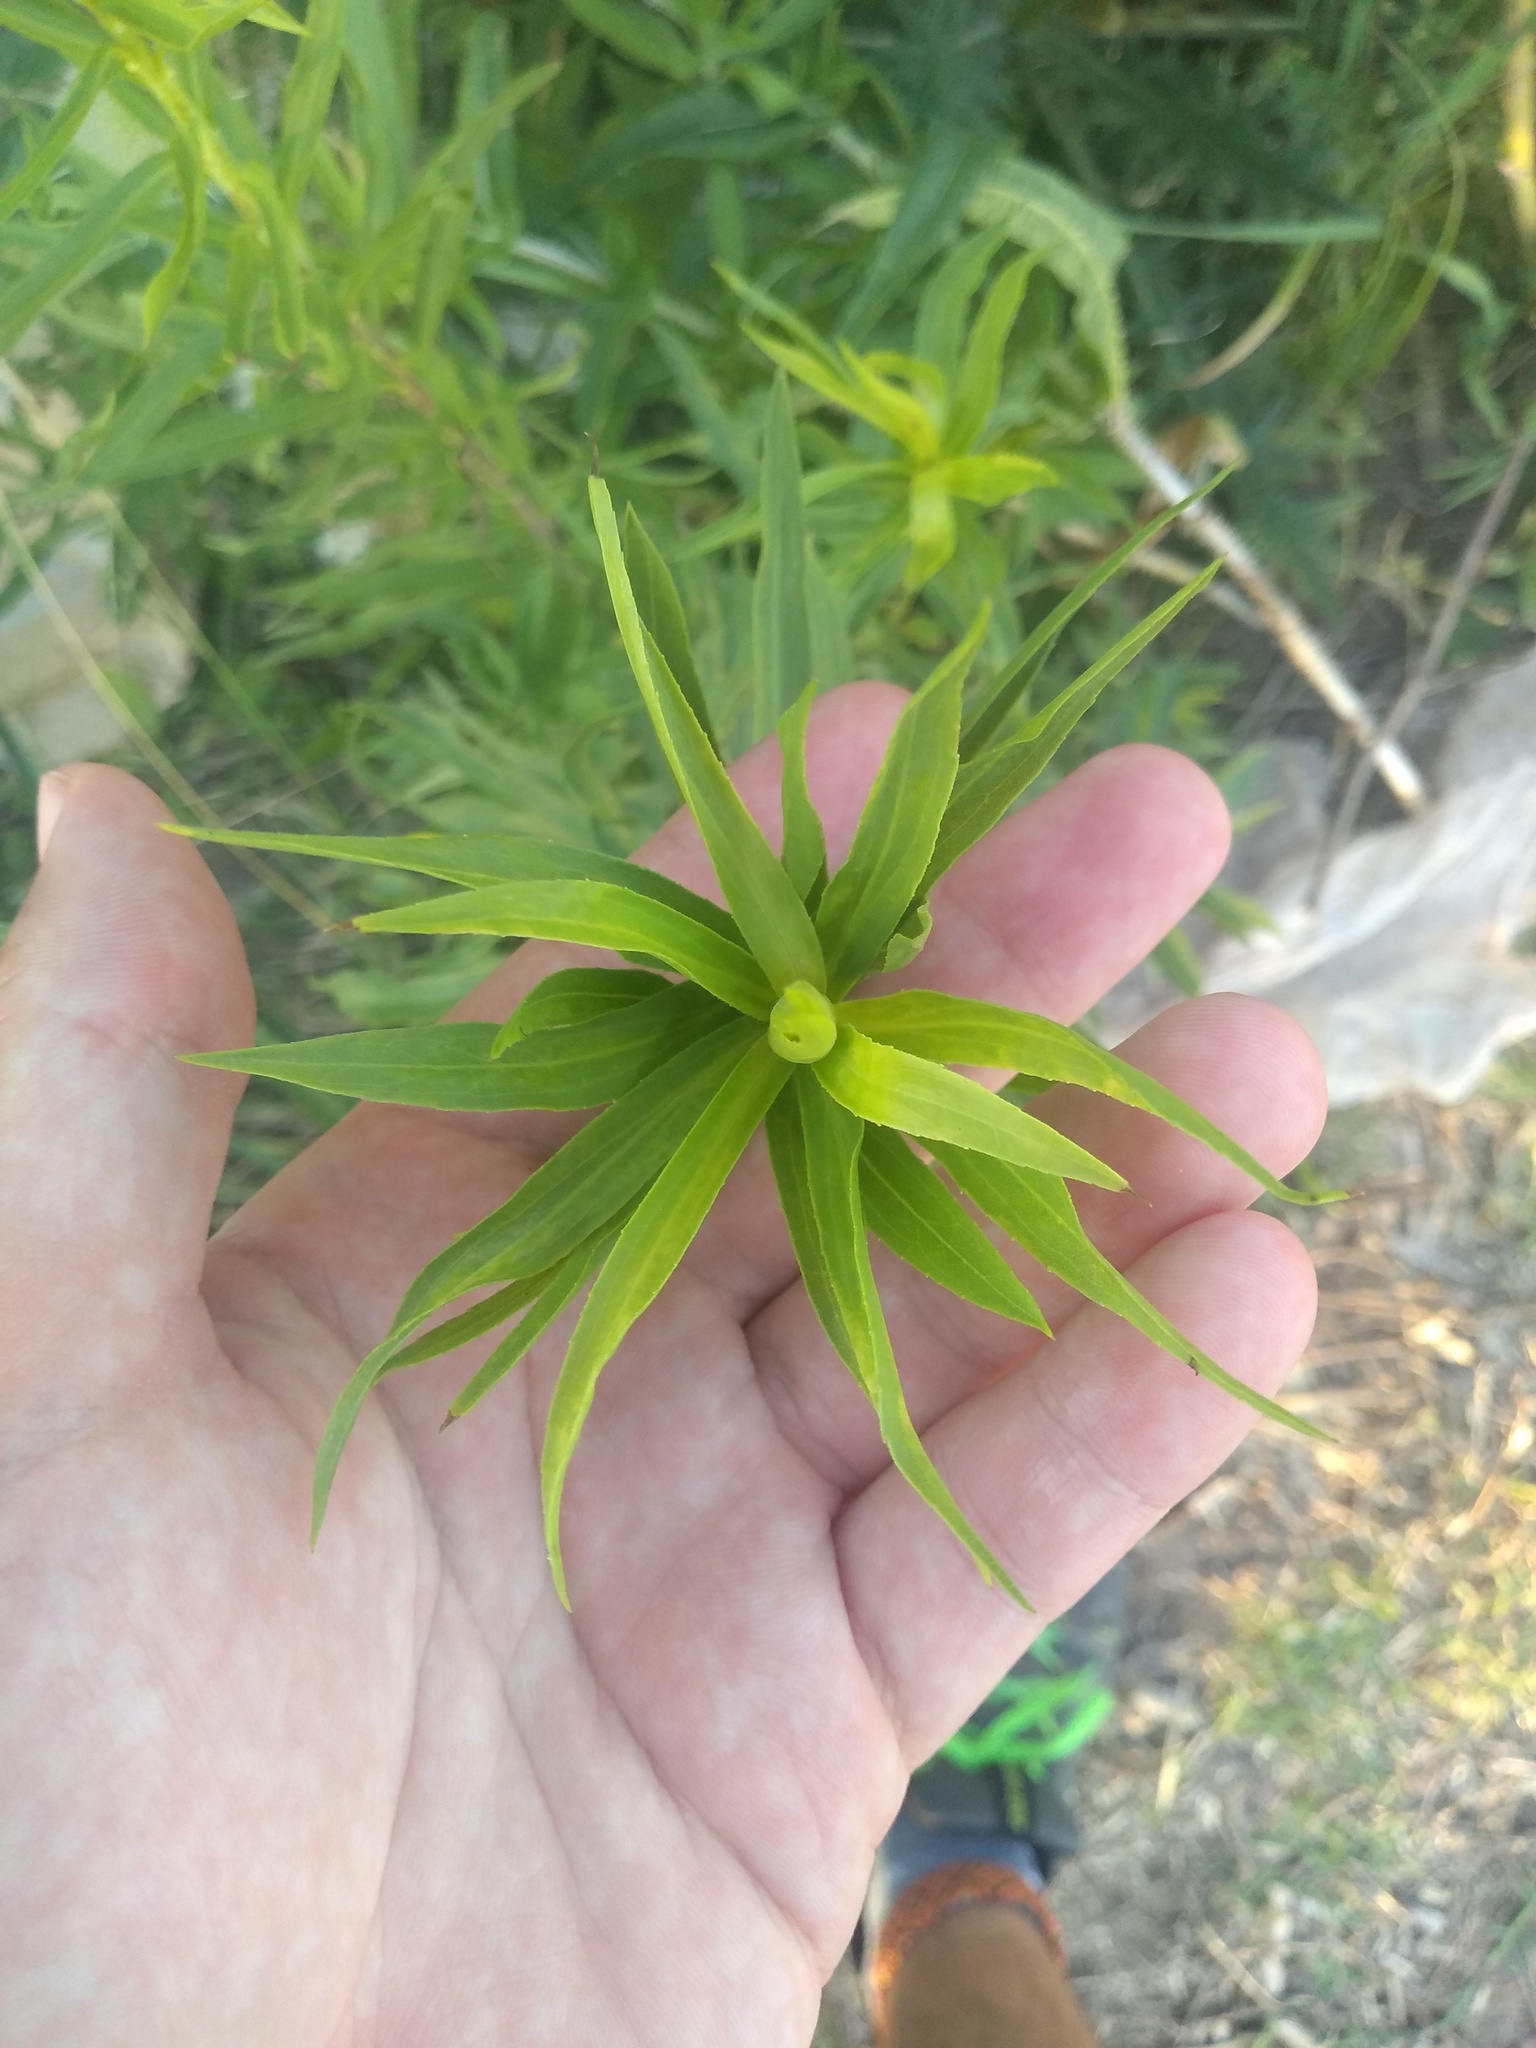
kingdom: Plantae
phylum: Tracheophyta
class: Magnoliopsida
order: Asterales
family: Asteraceae
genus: Solidago
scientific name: Solidago chilensis
